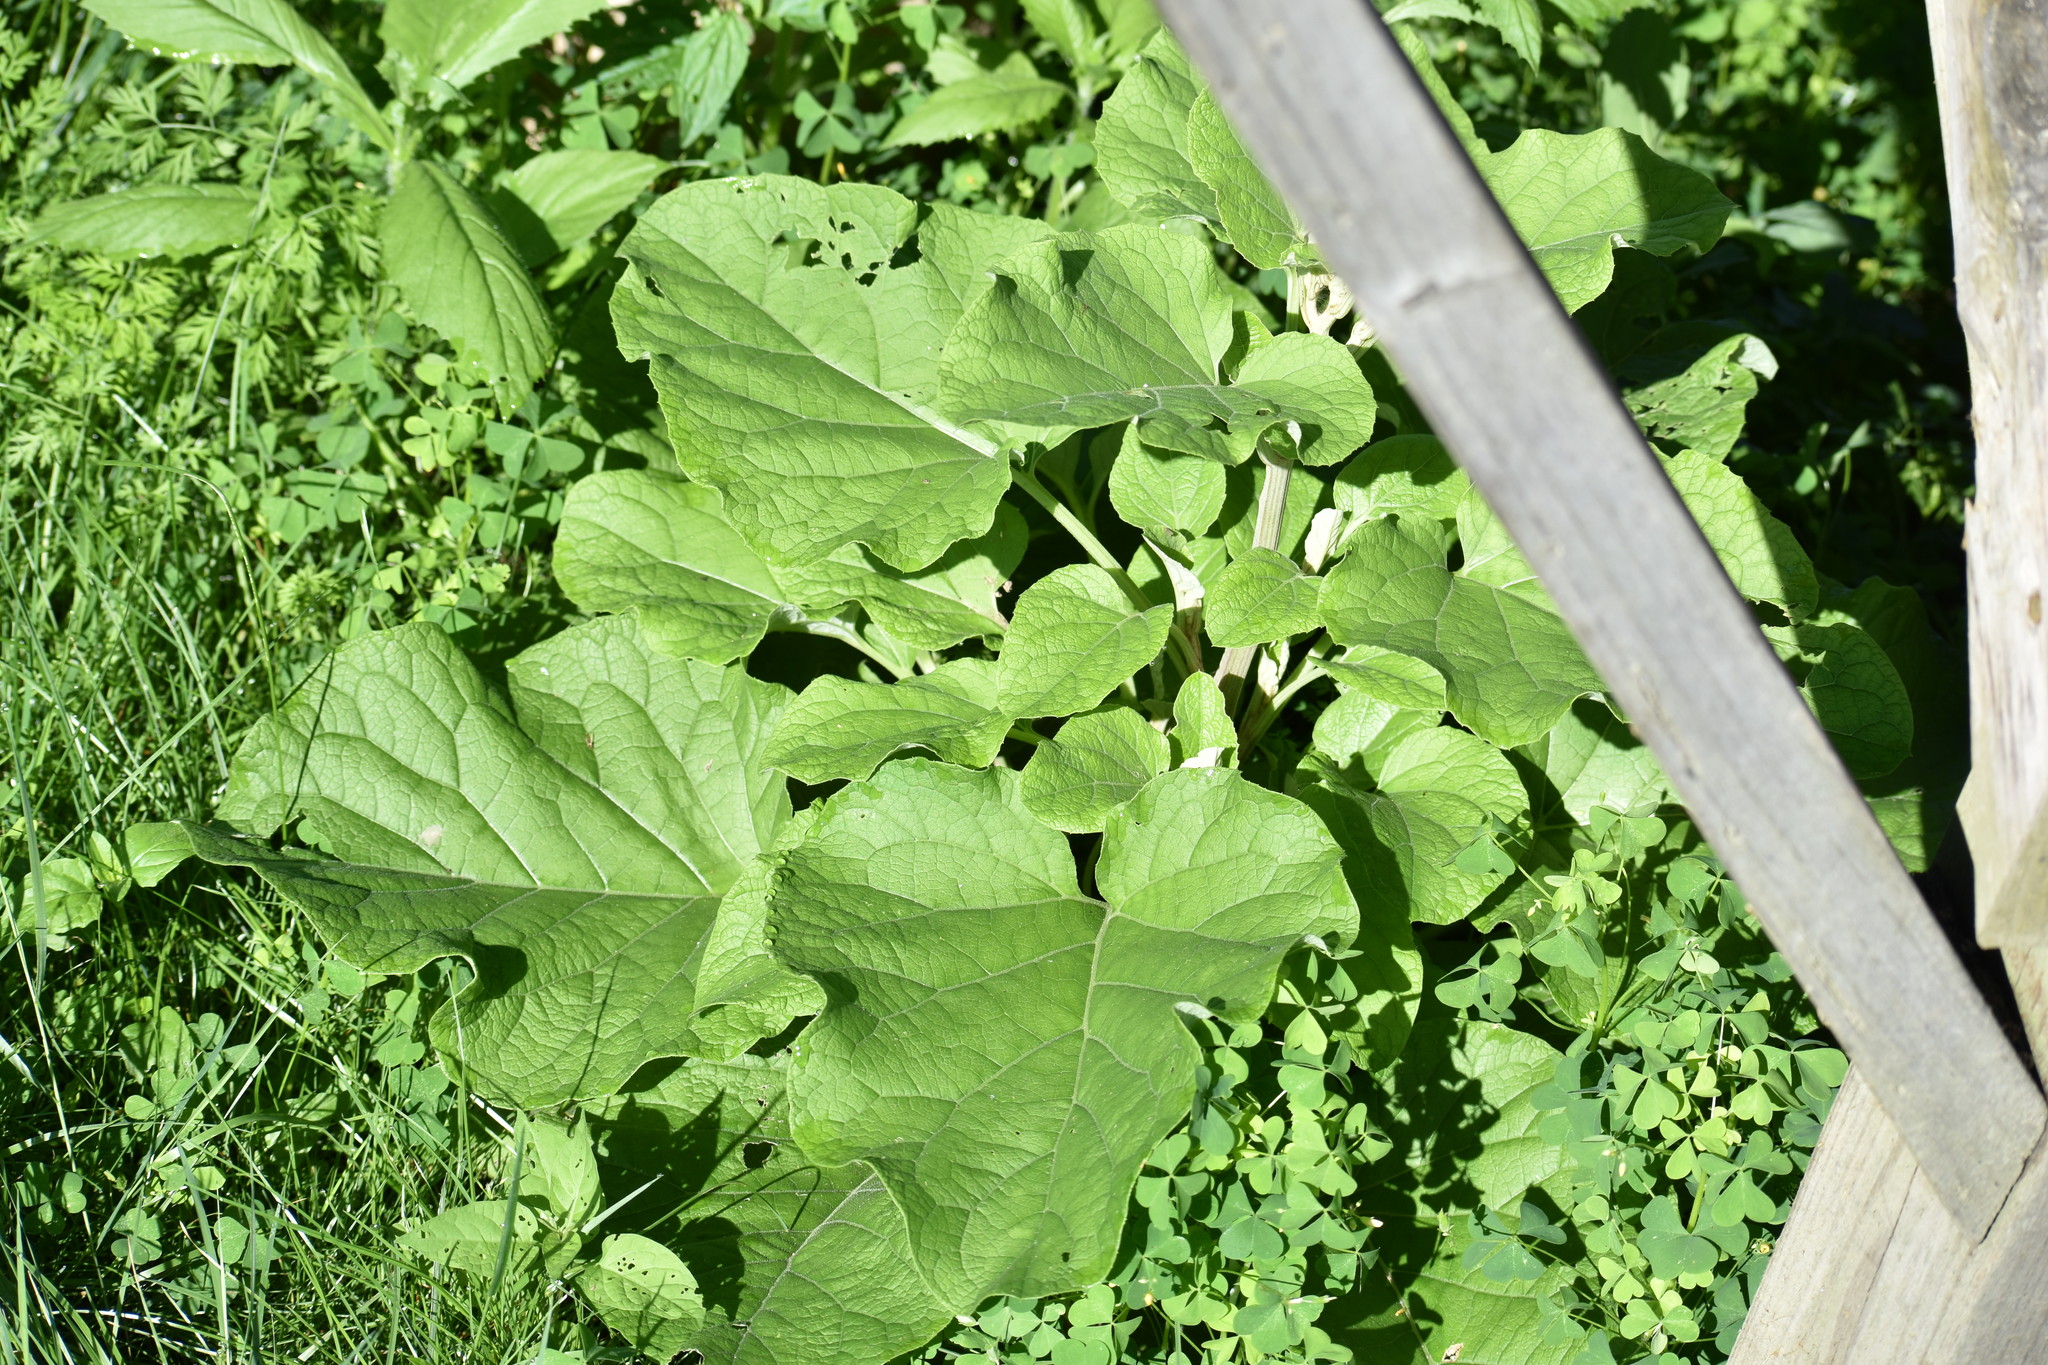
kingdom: Plantae
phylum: Tracheophyta
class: Magnoliopsida
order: Asterales
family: Asteraceae
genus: Arctium
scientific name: Arctium
